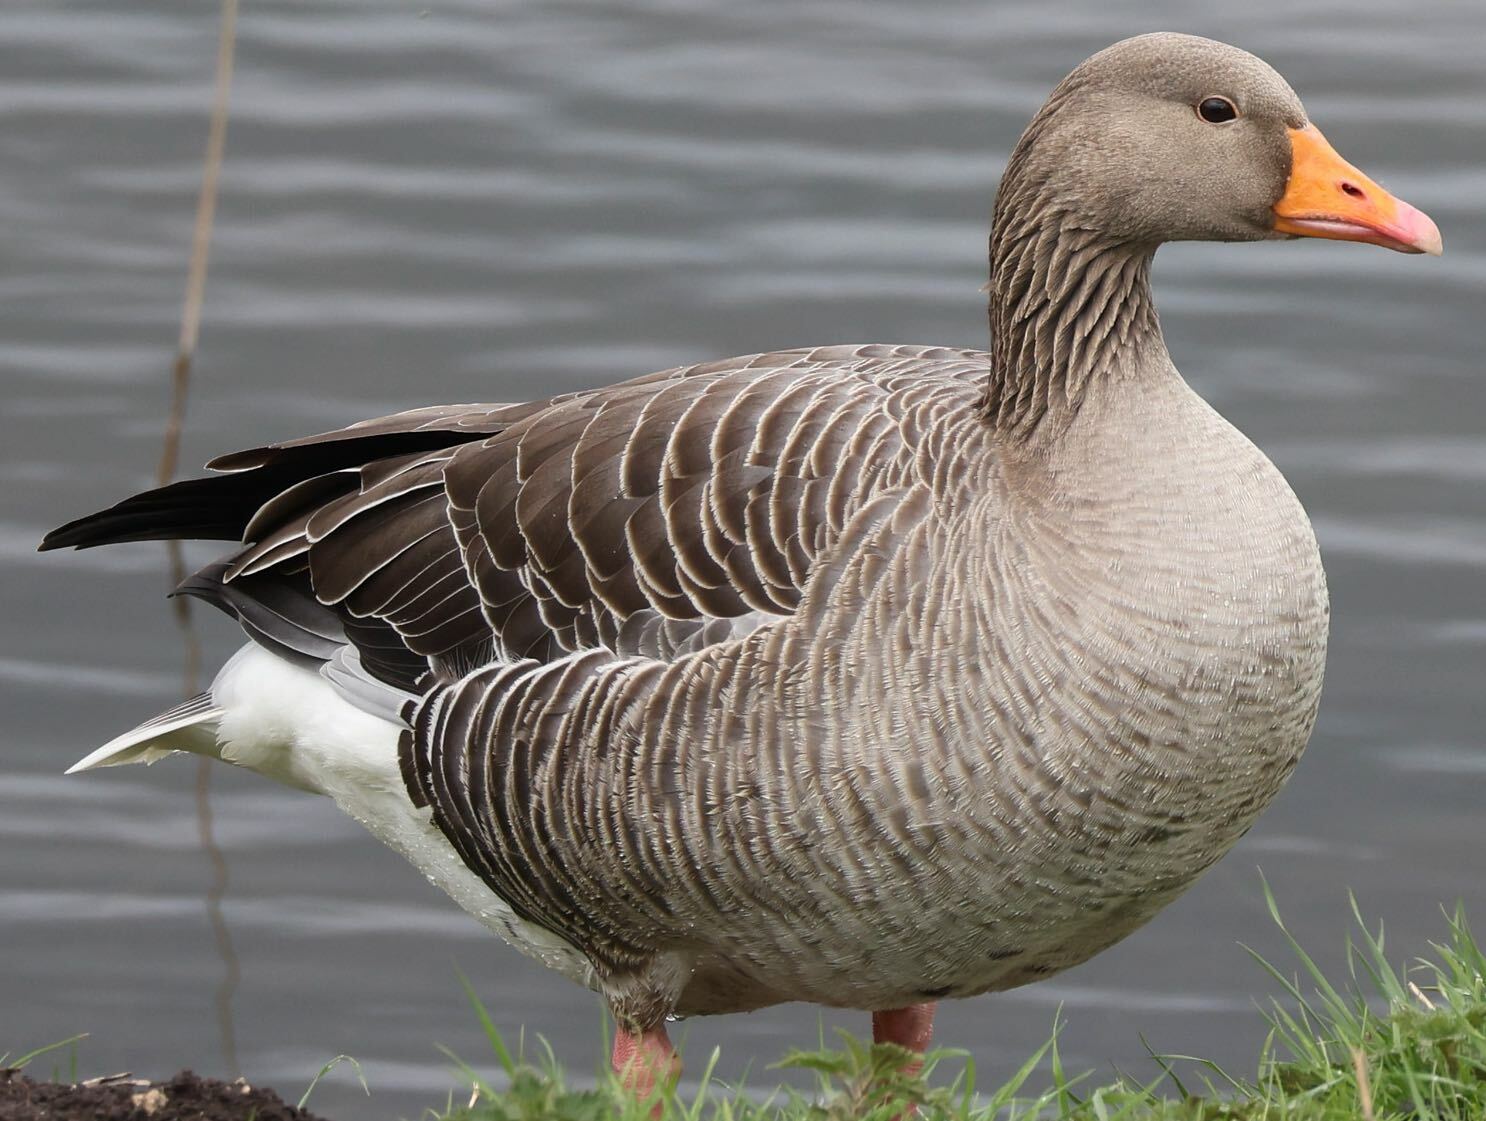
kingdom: Animalia
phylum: Chordata
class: Aves
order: Anseriformes
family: Anatidae
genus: Anser
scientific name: Anser anser
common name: Greylag goose
